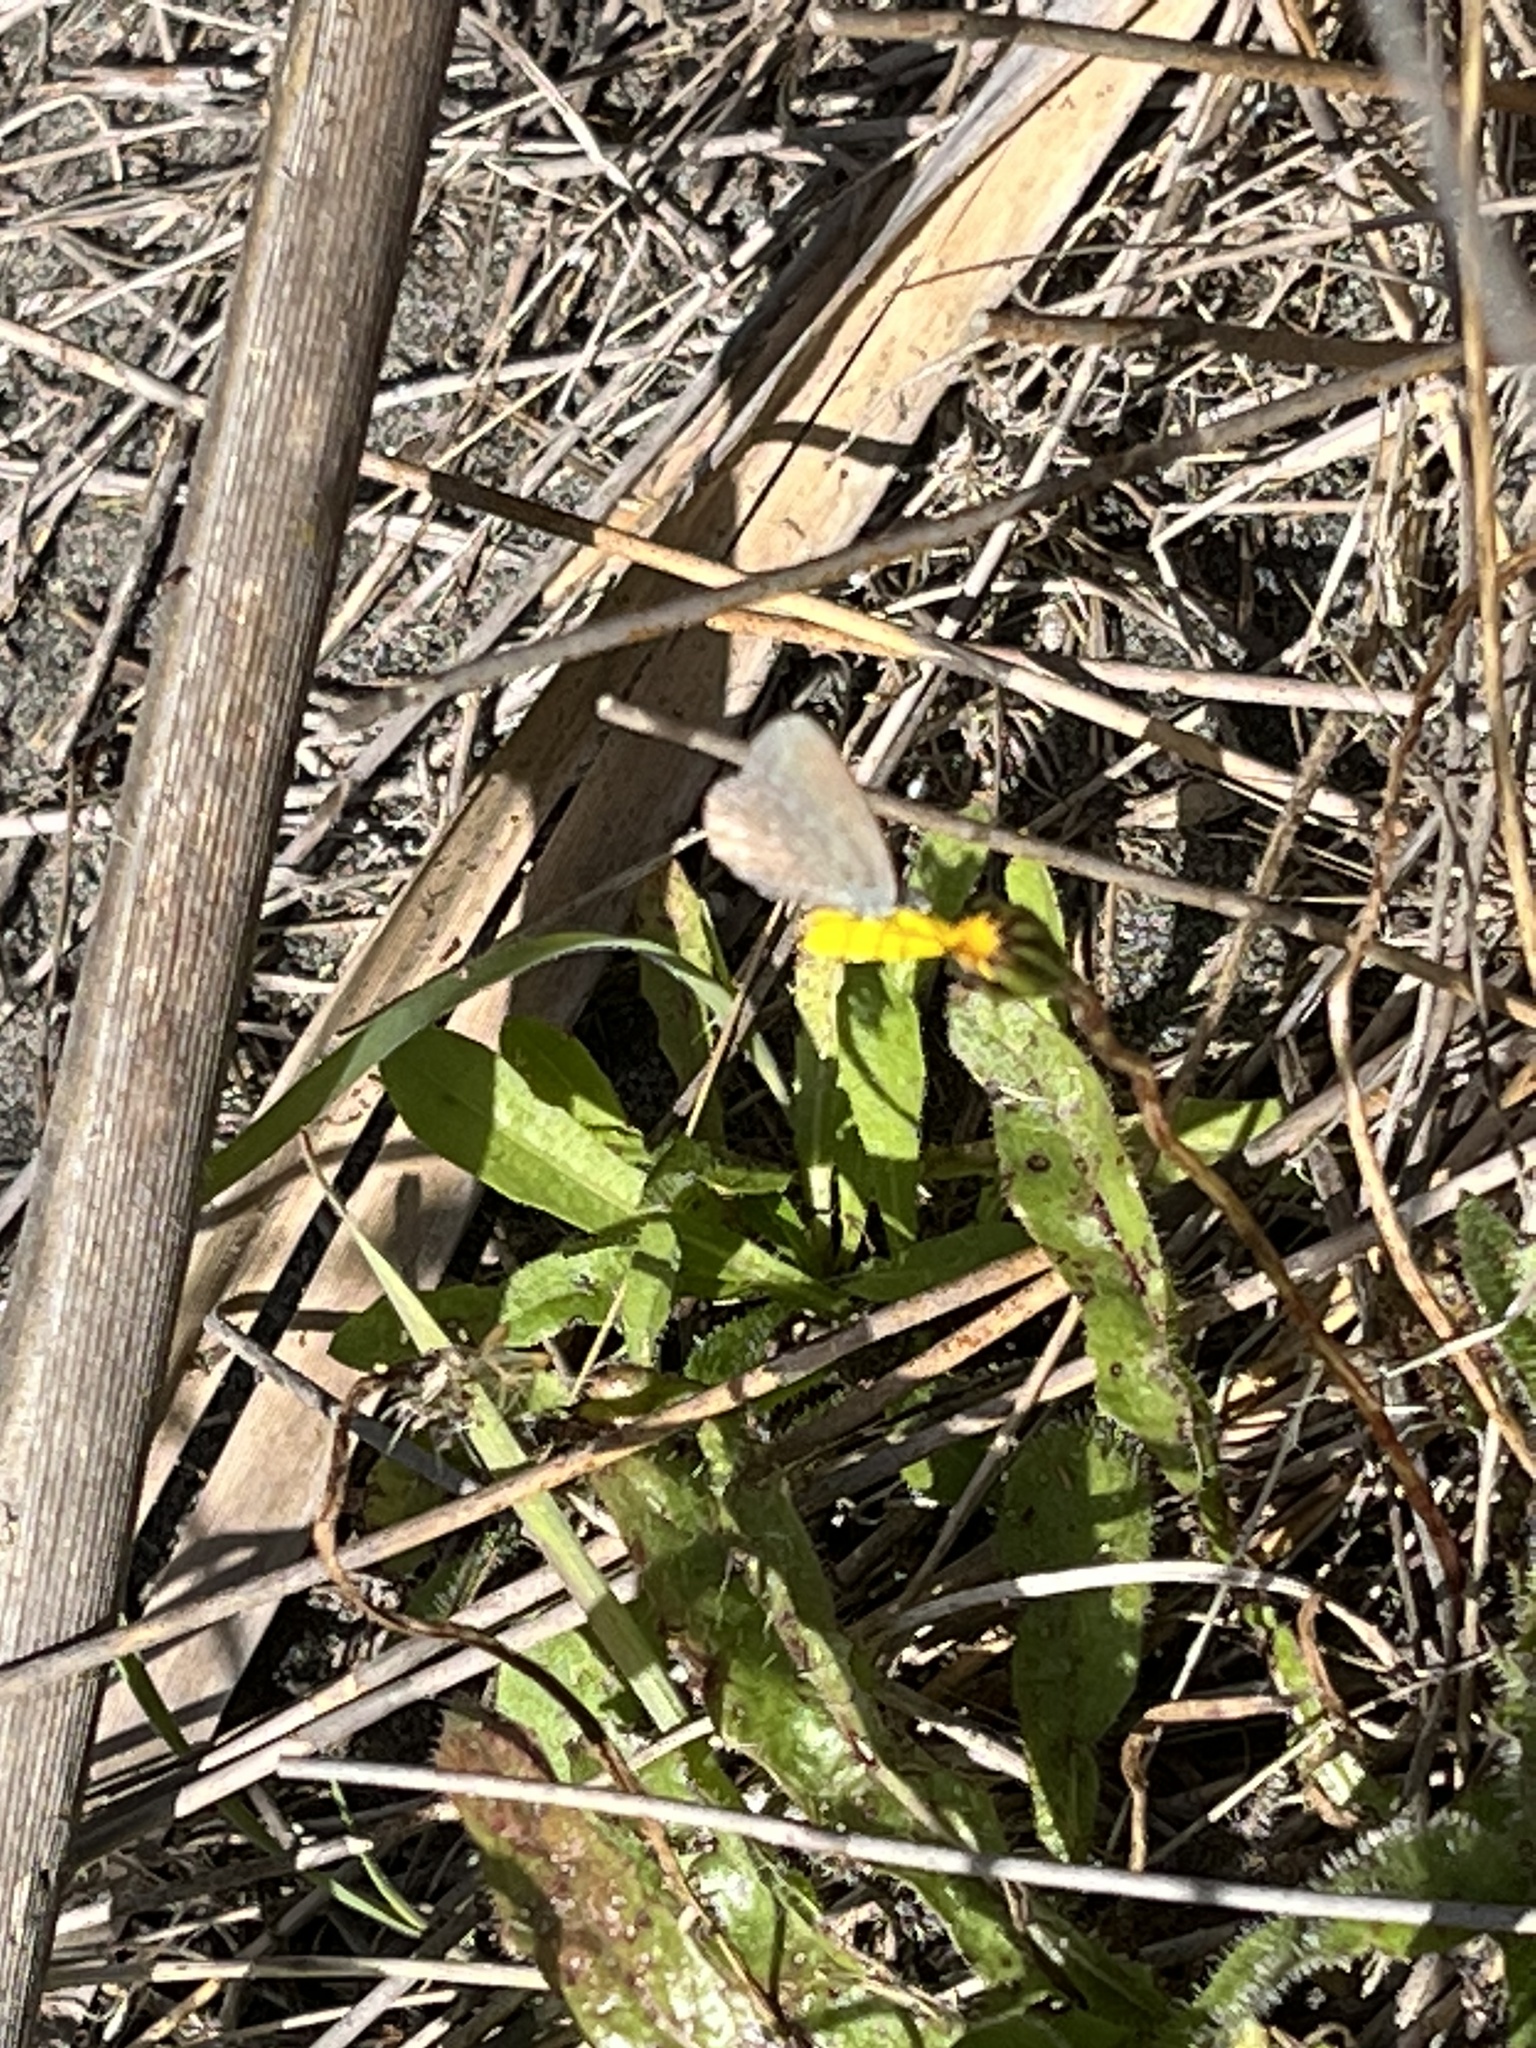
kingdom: Animalia
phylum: Arthropoda
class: Insecta
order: Lepidoptera
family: Lycaenidae
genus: Zizina
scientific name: Zizina labradus
